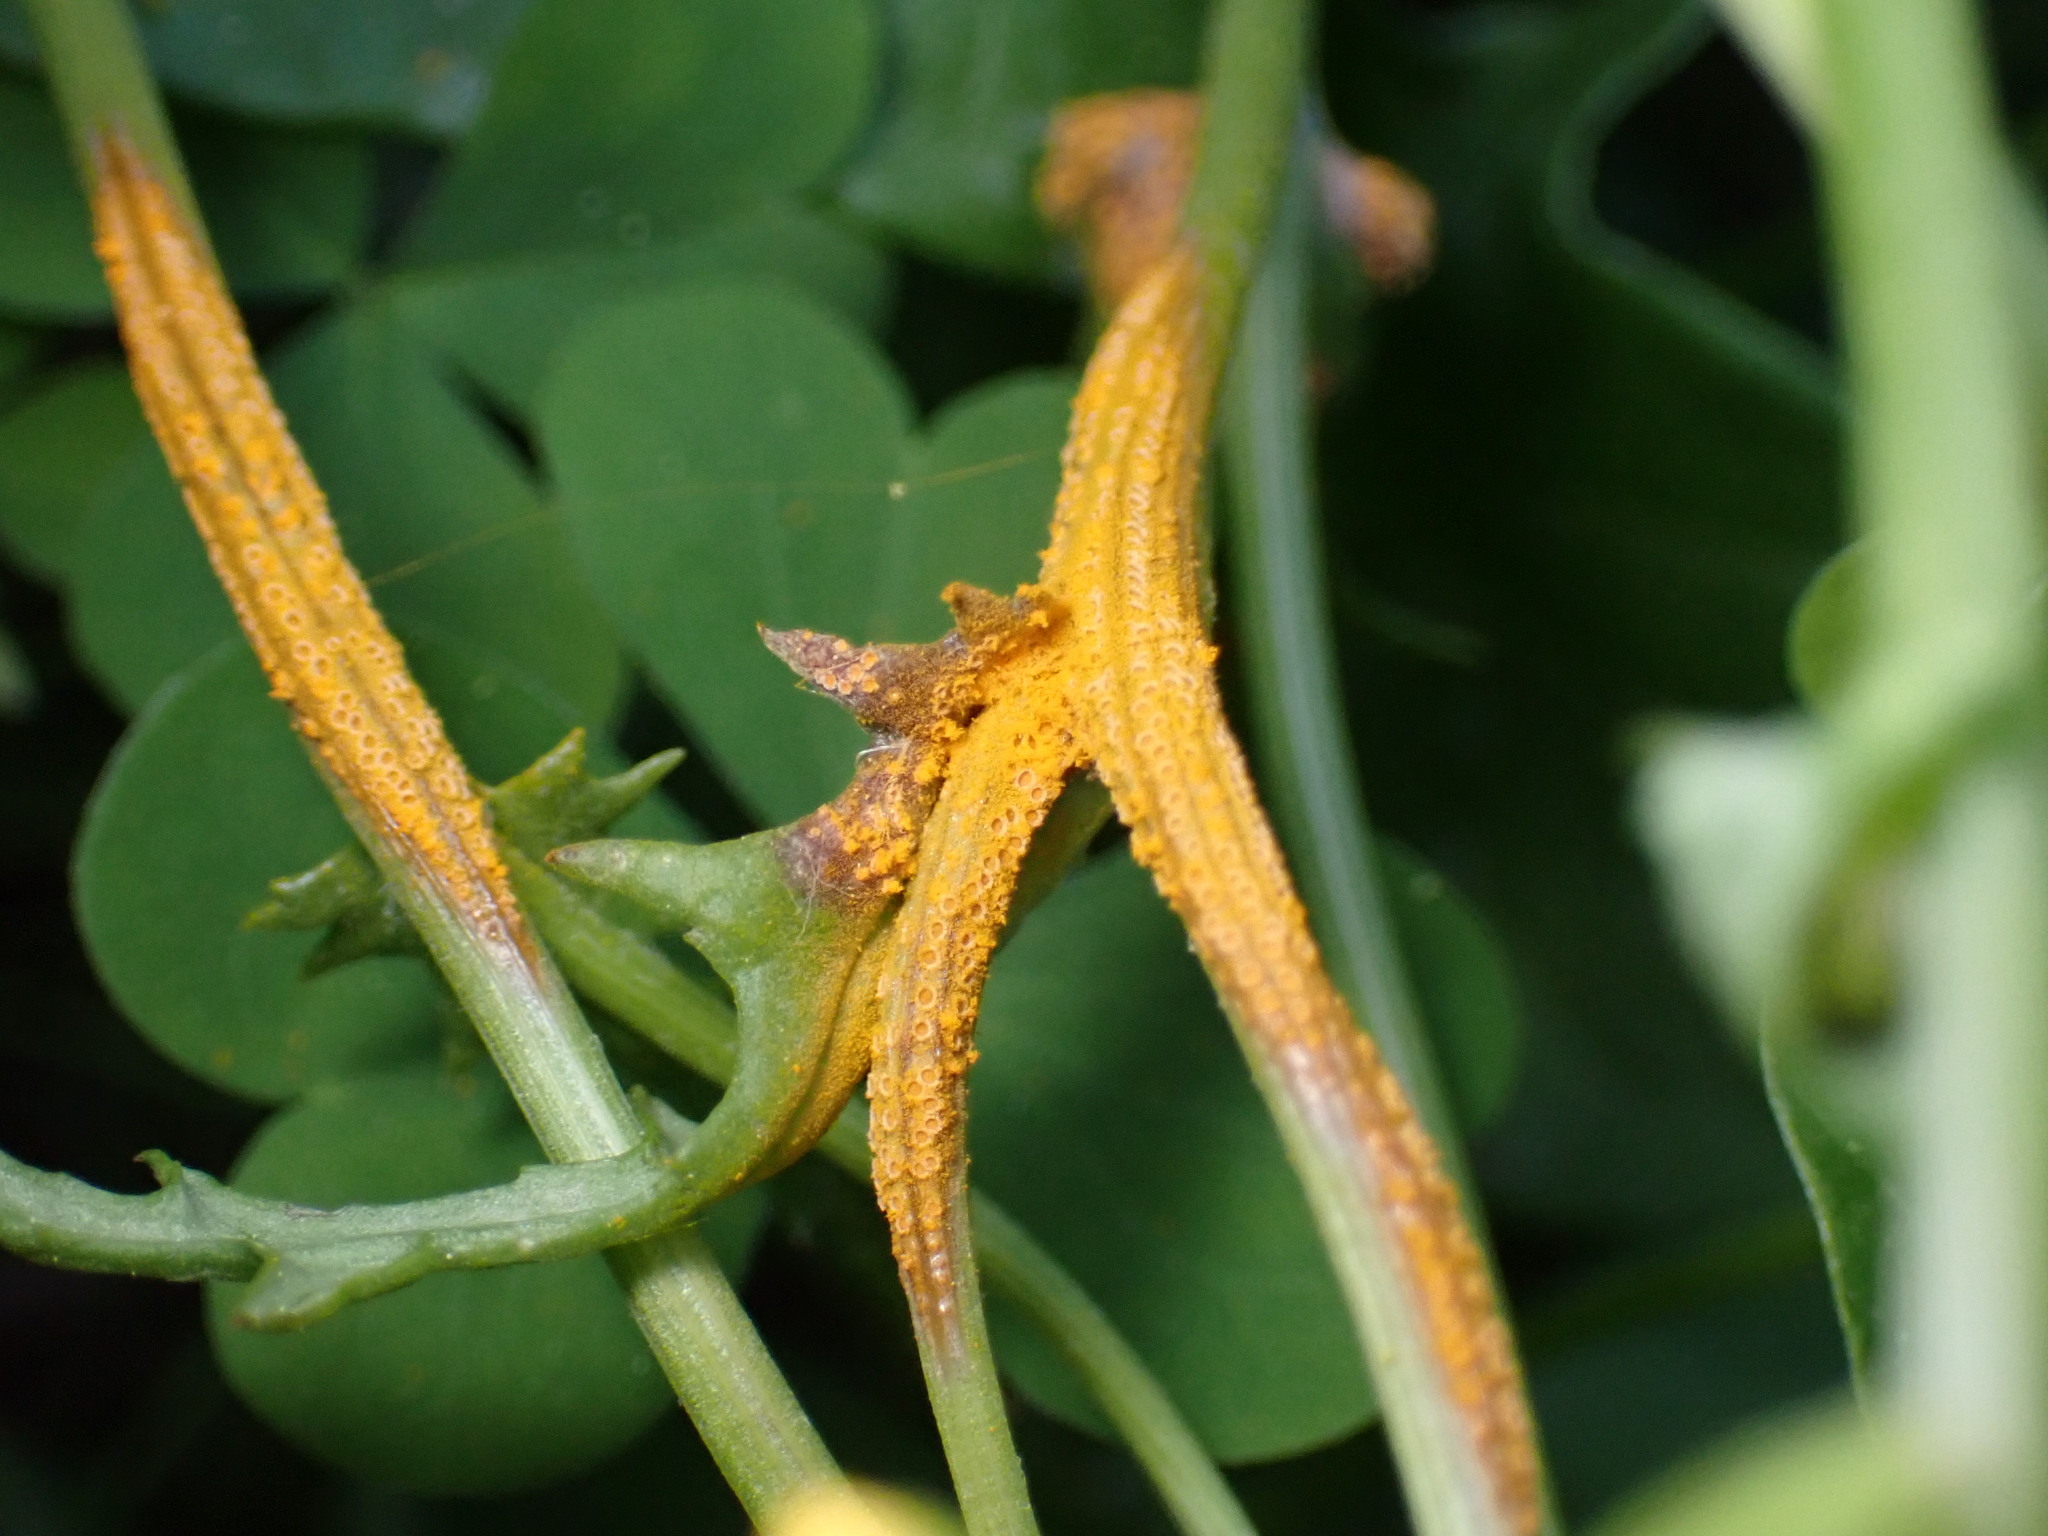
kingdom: Fungi
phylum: Basidiomycota
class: Pucciniomycetes
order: Pucciniales
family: Pucciniaceae
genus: Puccinia
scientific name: Puccinia lagenophorae
